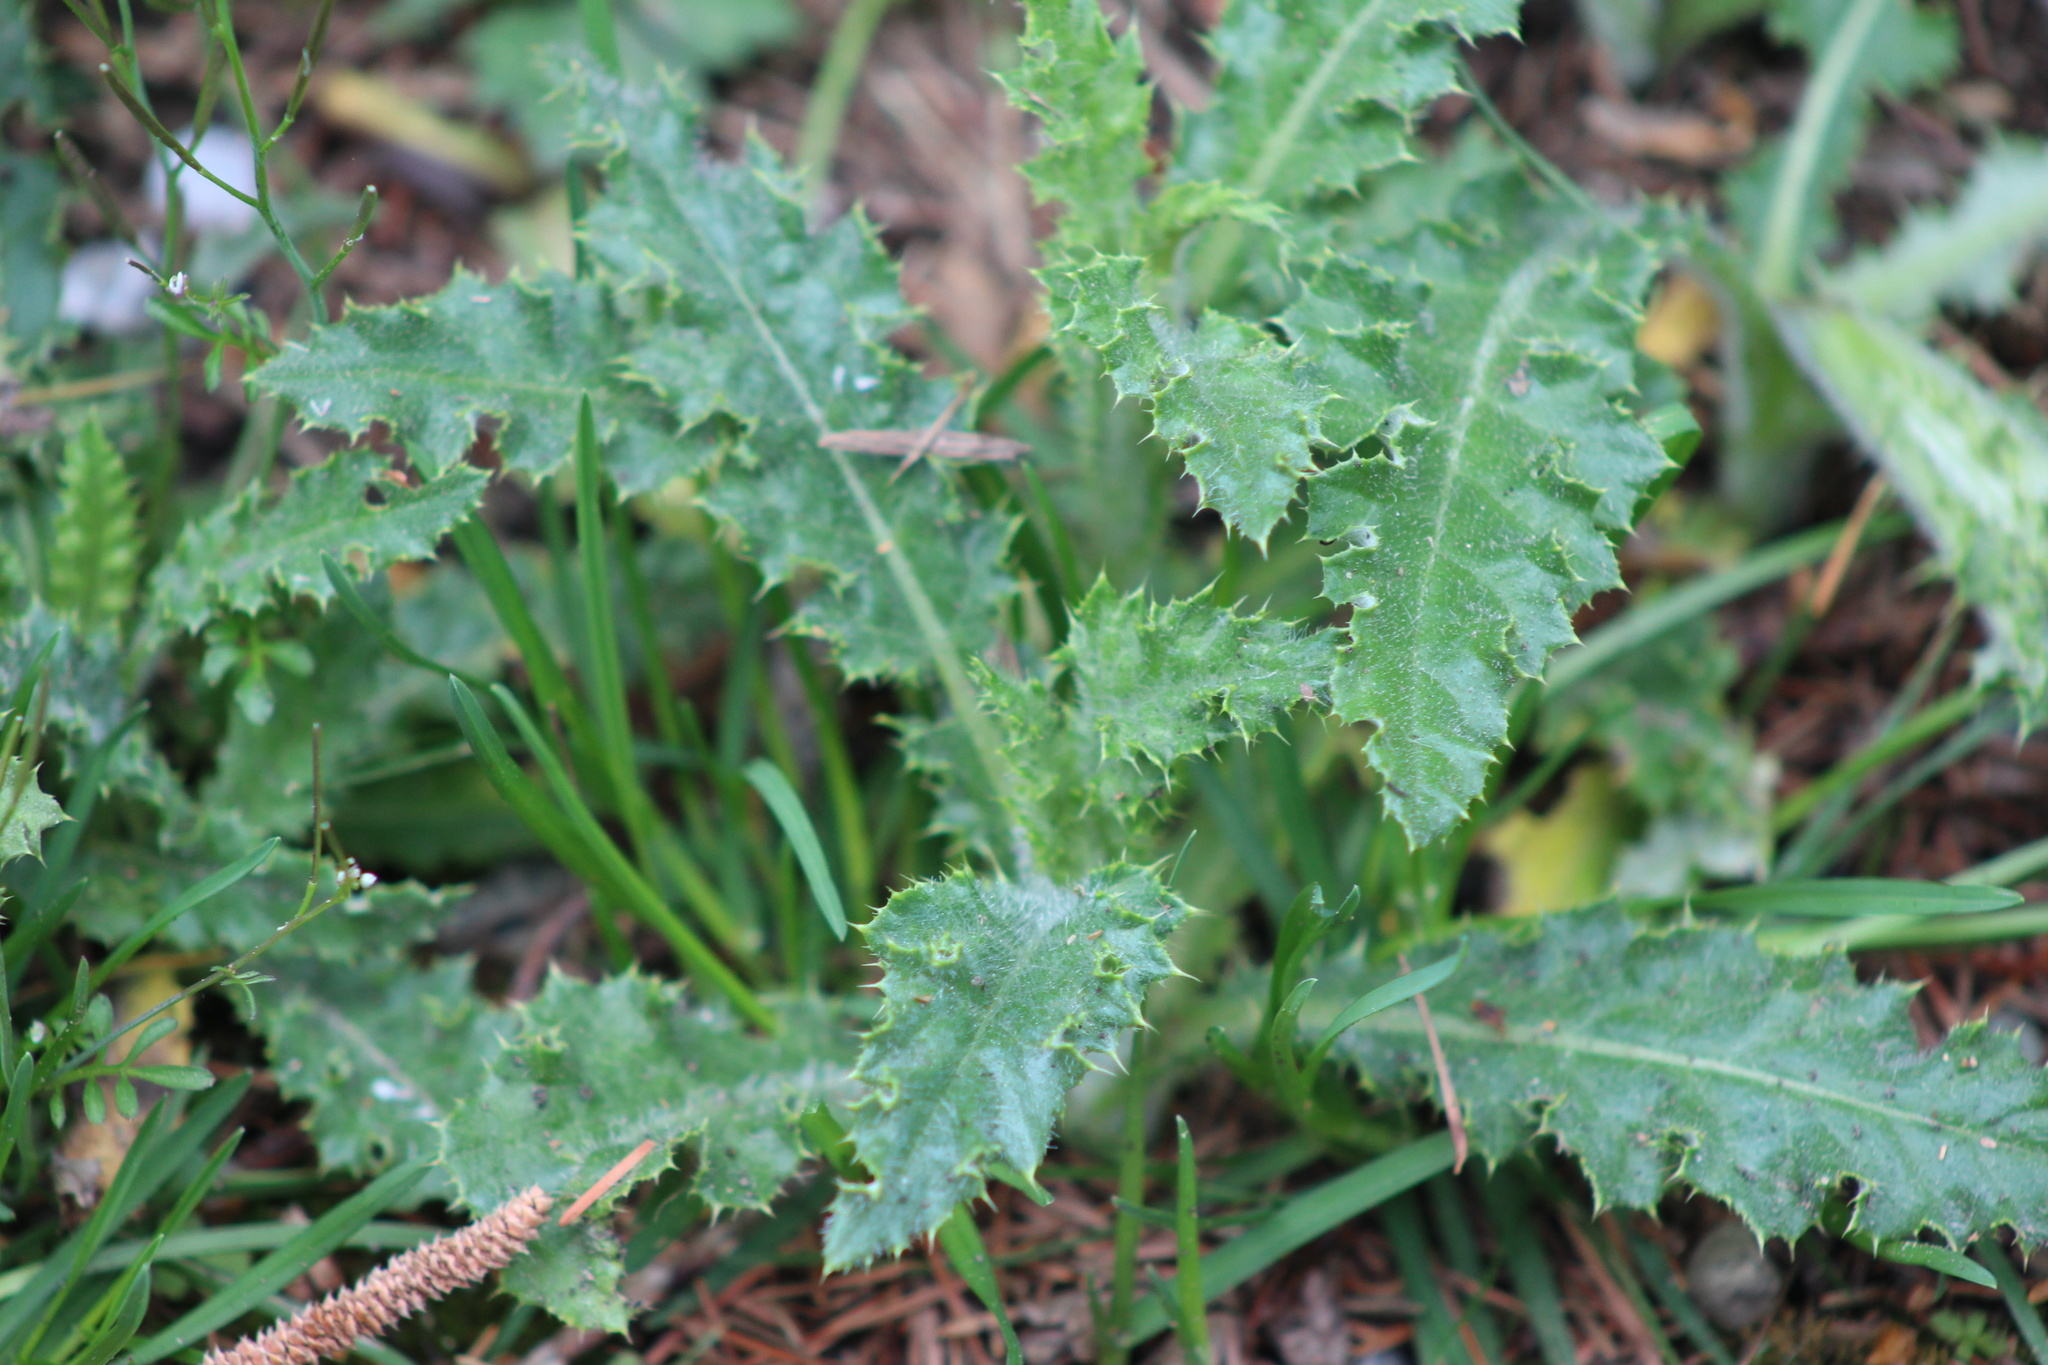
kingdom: Plantae
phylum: Tracheophyta
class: Magnoliopsida
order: Asterales
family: Asteraceae
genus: Cirsium
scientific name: Cirsium arvense
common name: Creeping thistle
